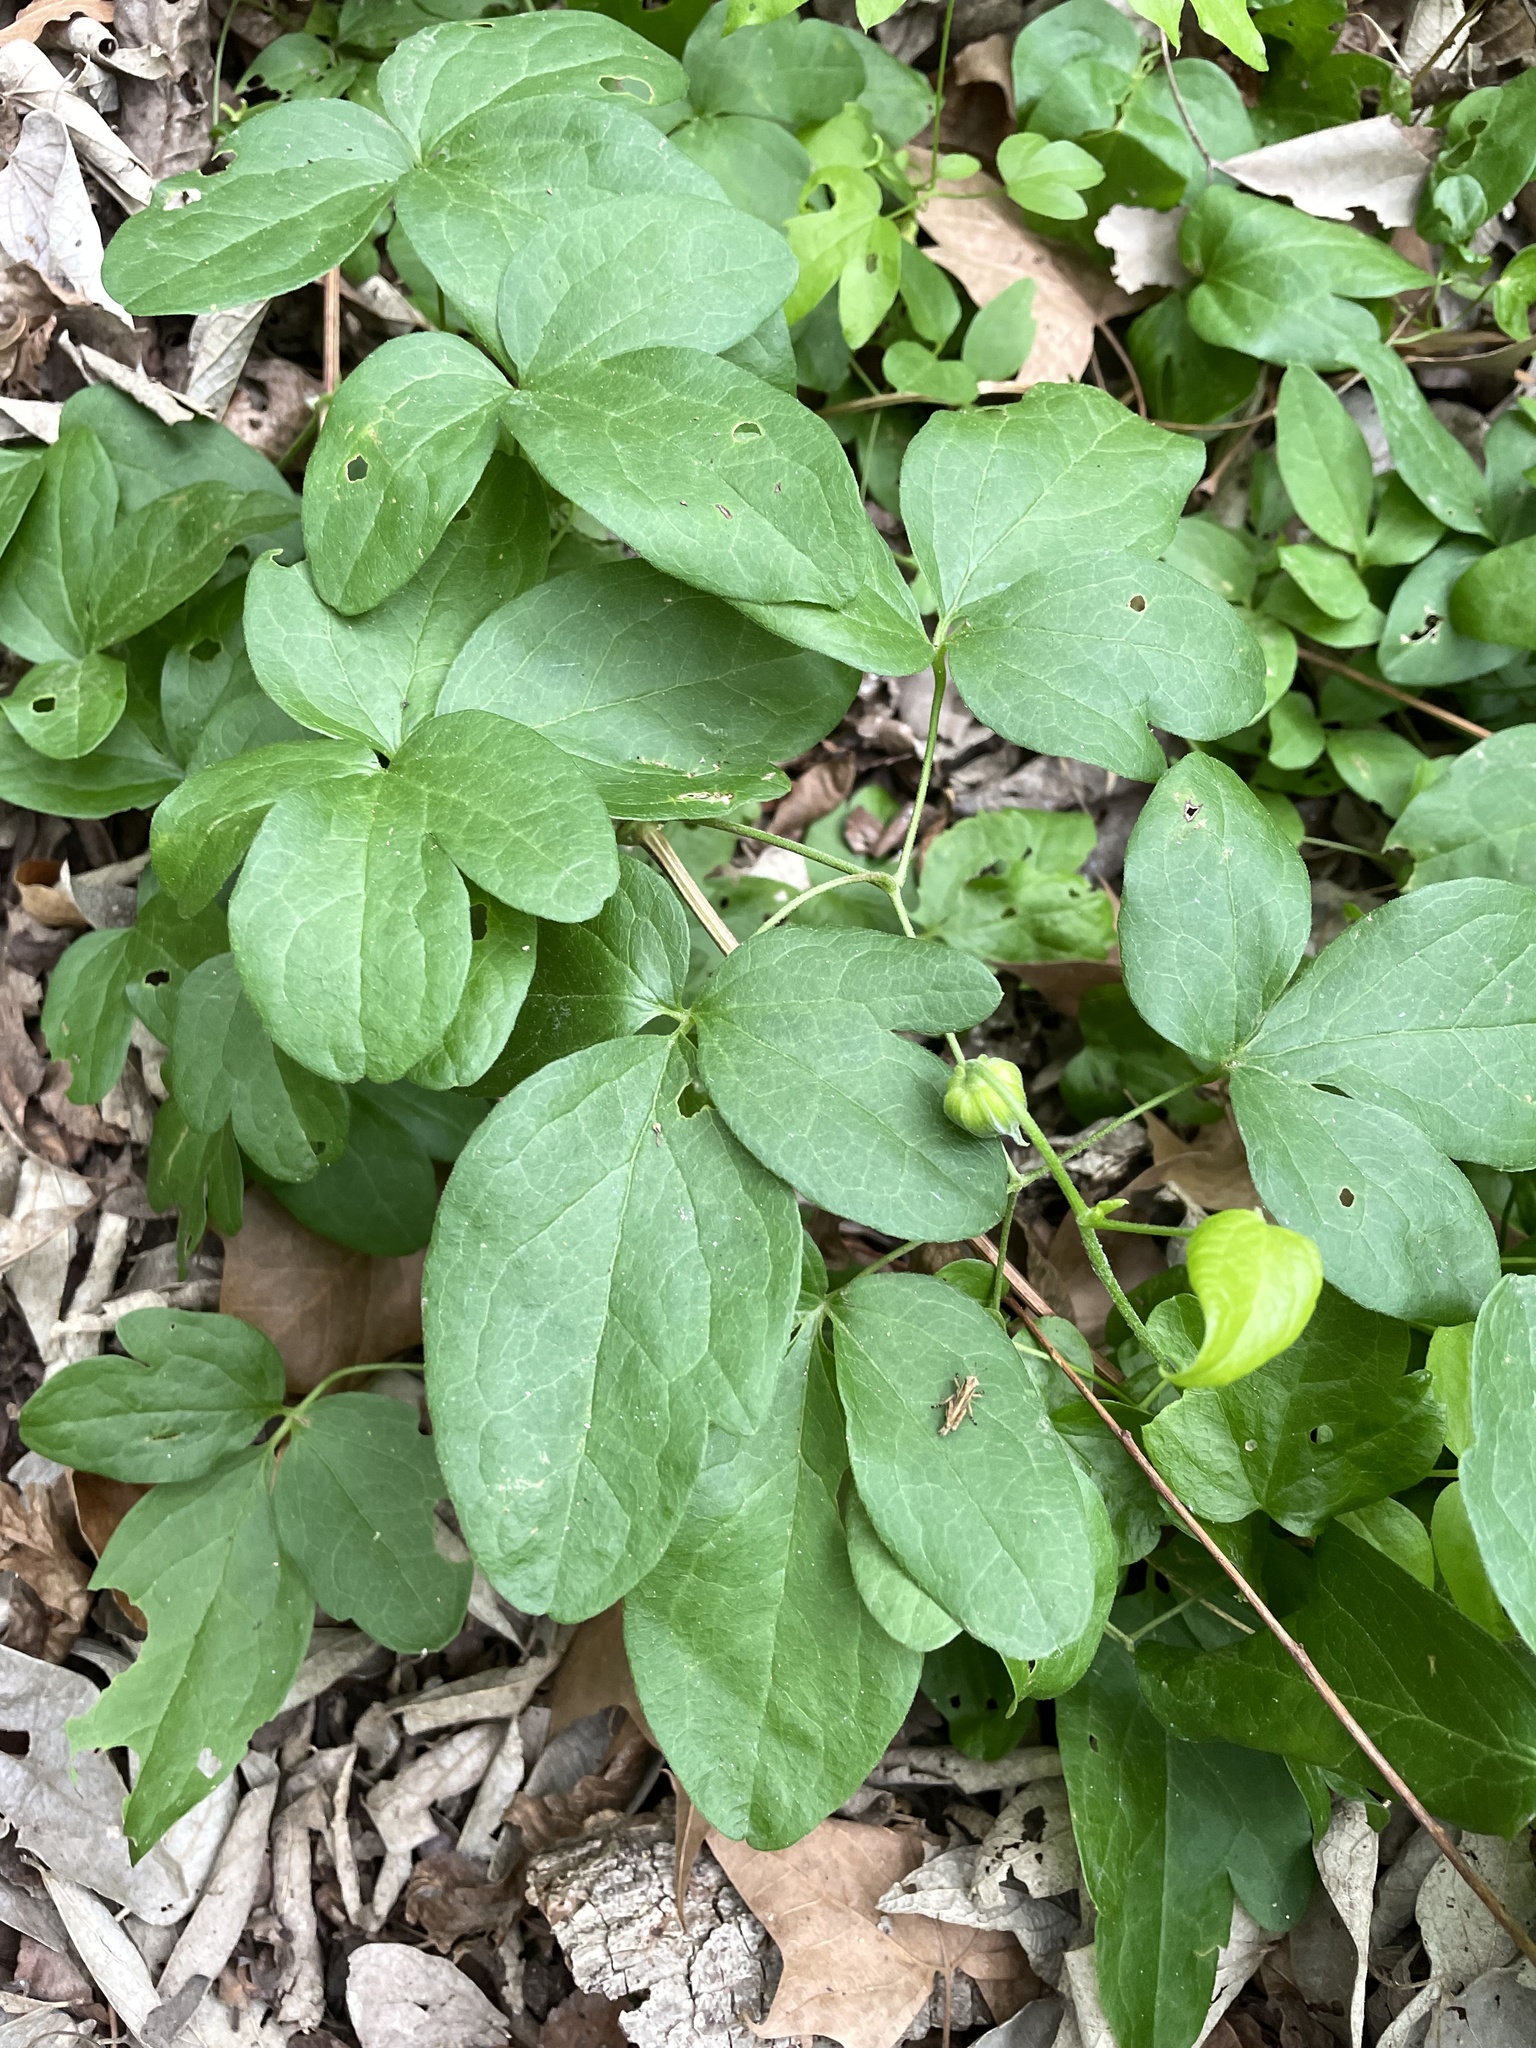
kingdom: Plantae
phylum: Tracheophyta
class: Magnoliopsida
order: Ranunculales
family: Ranunculaceae
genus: Clematis
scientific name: Clematis pitcheri
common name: Bellflower clematis
